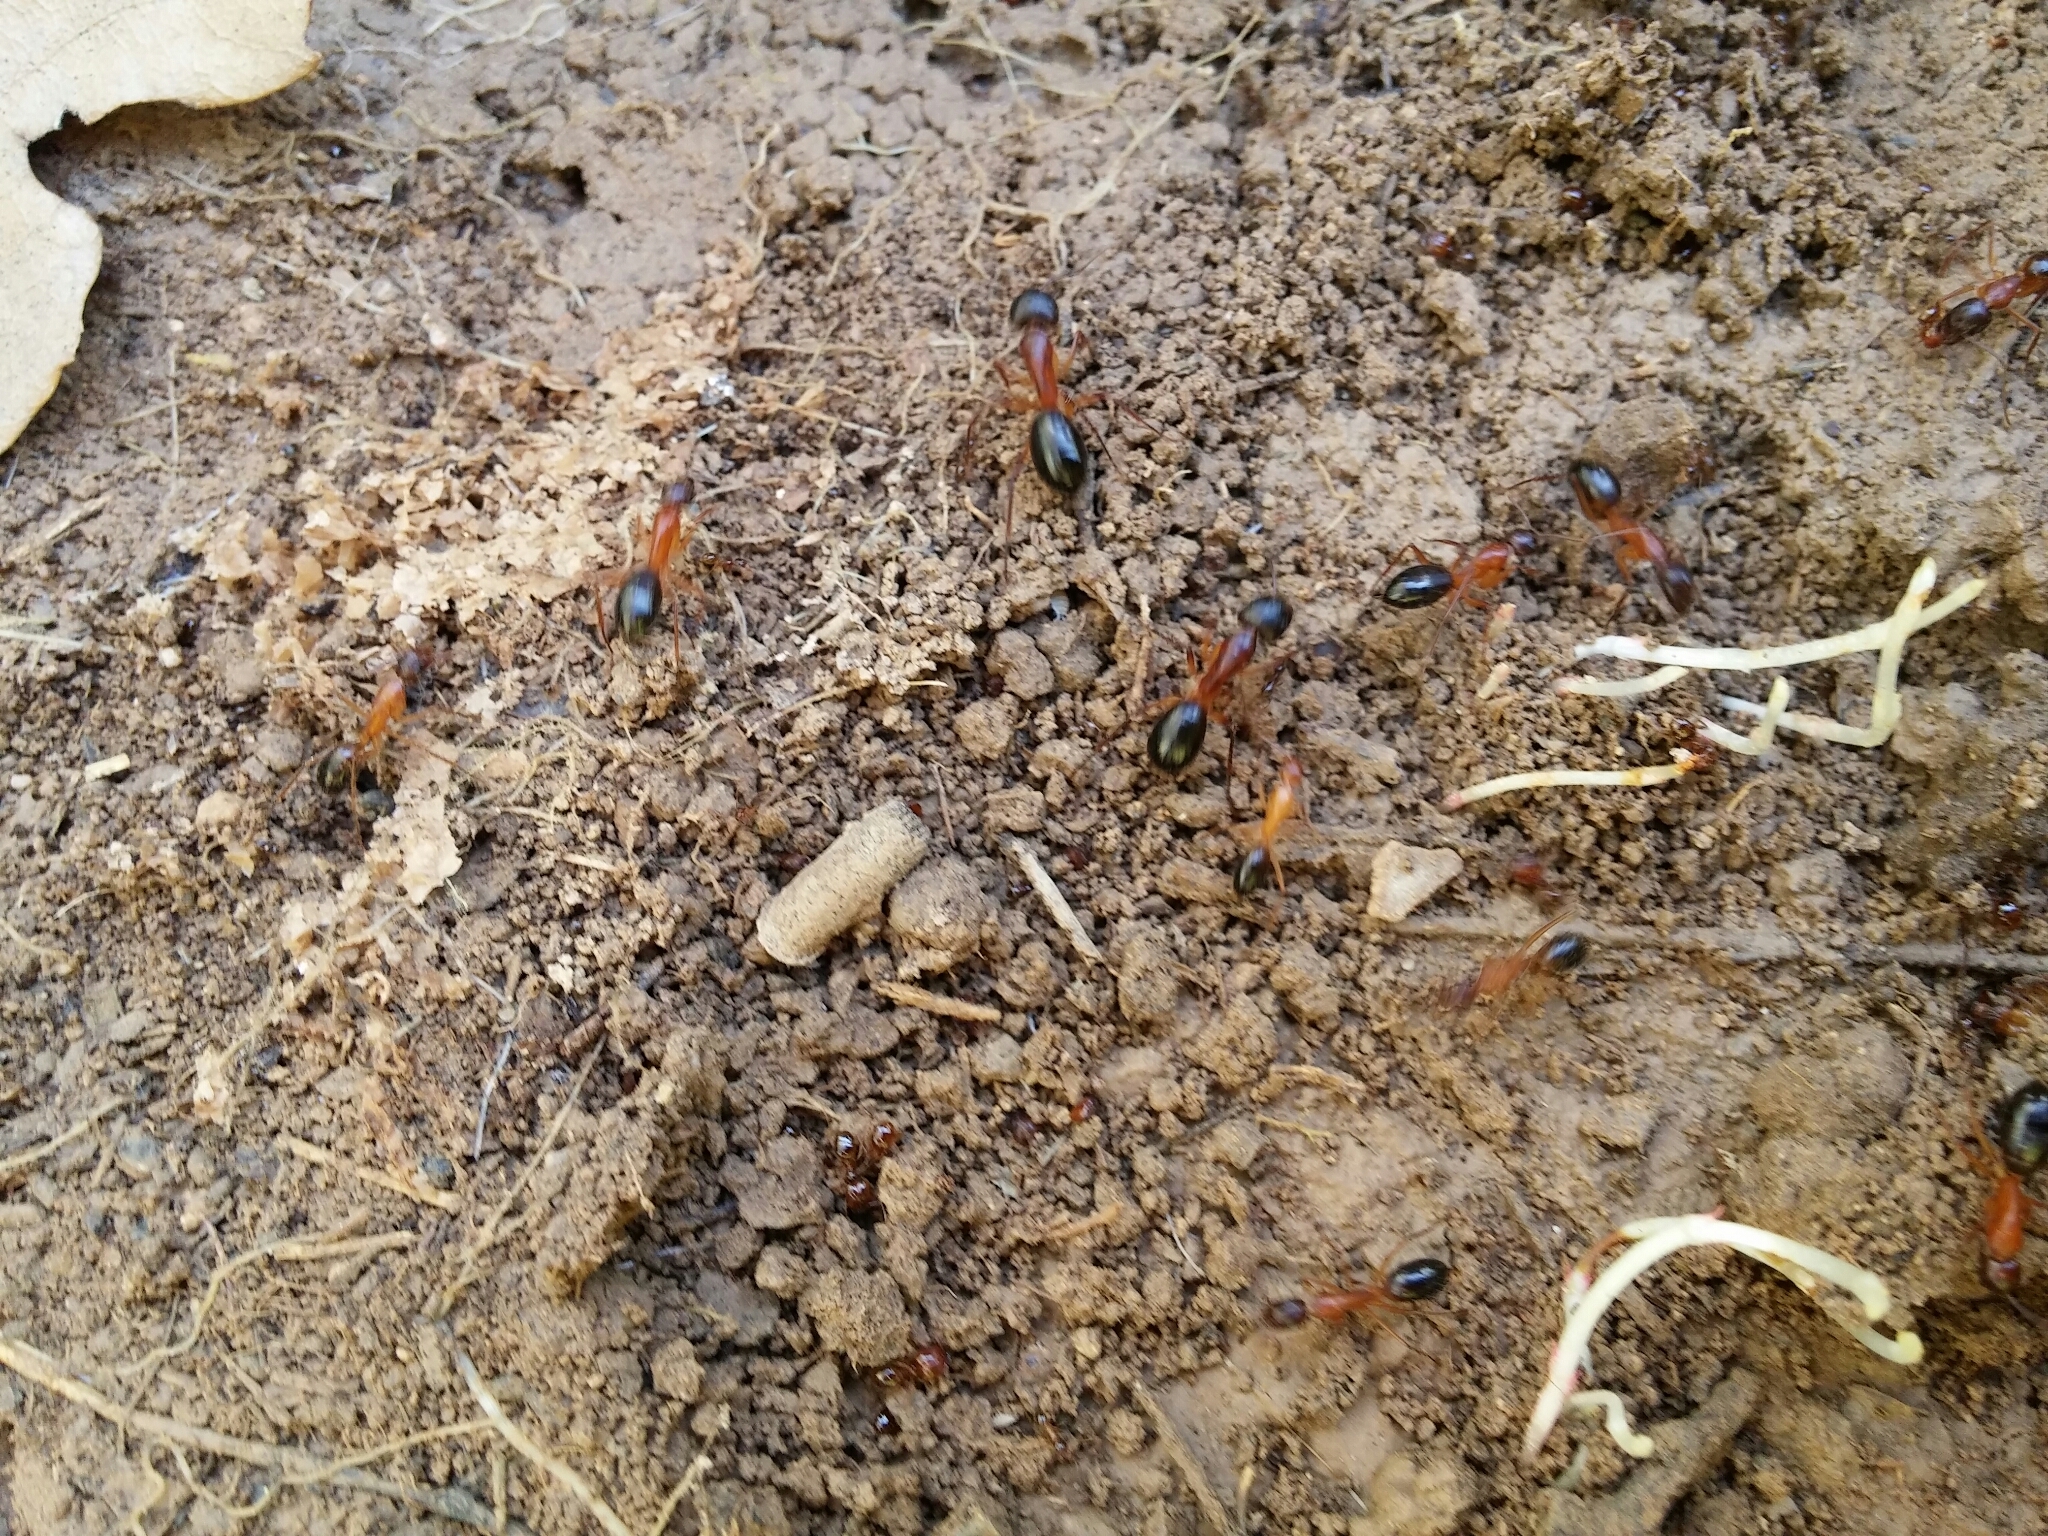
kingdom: Animalia
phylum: Arthropoda
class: Insecta
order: Hymenoptera
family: Formicidae
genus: Camponotus
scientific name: Camponotus pilicornis
